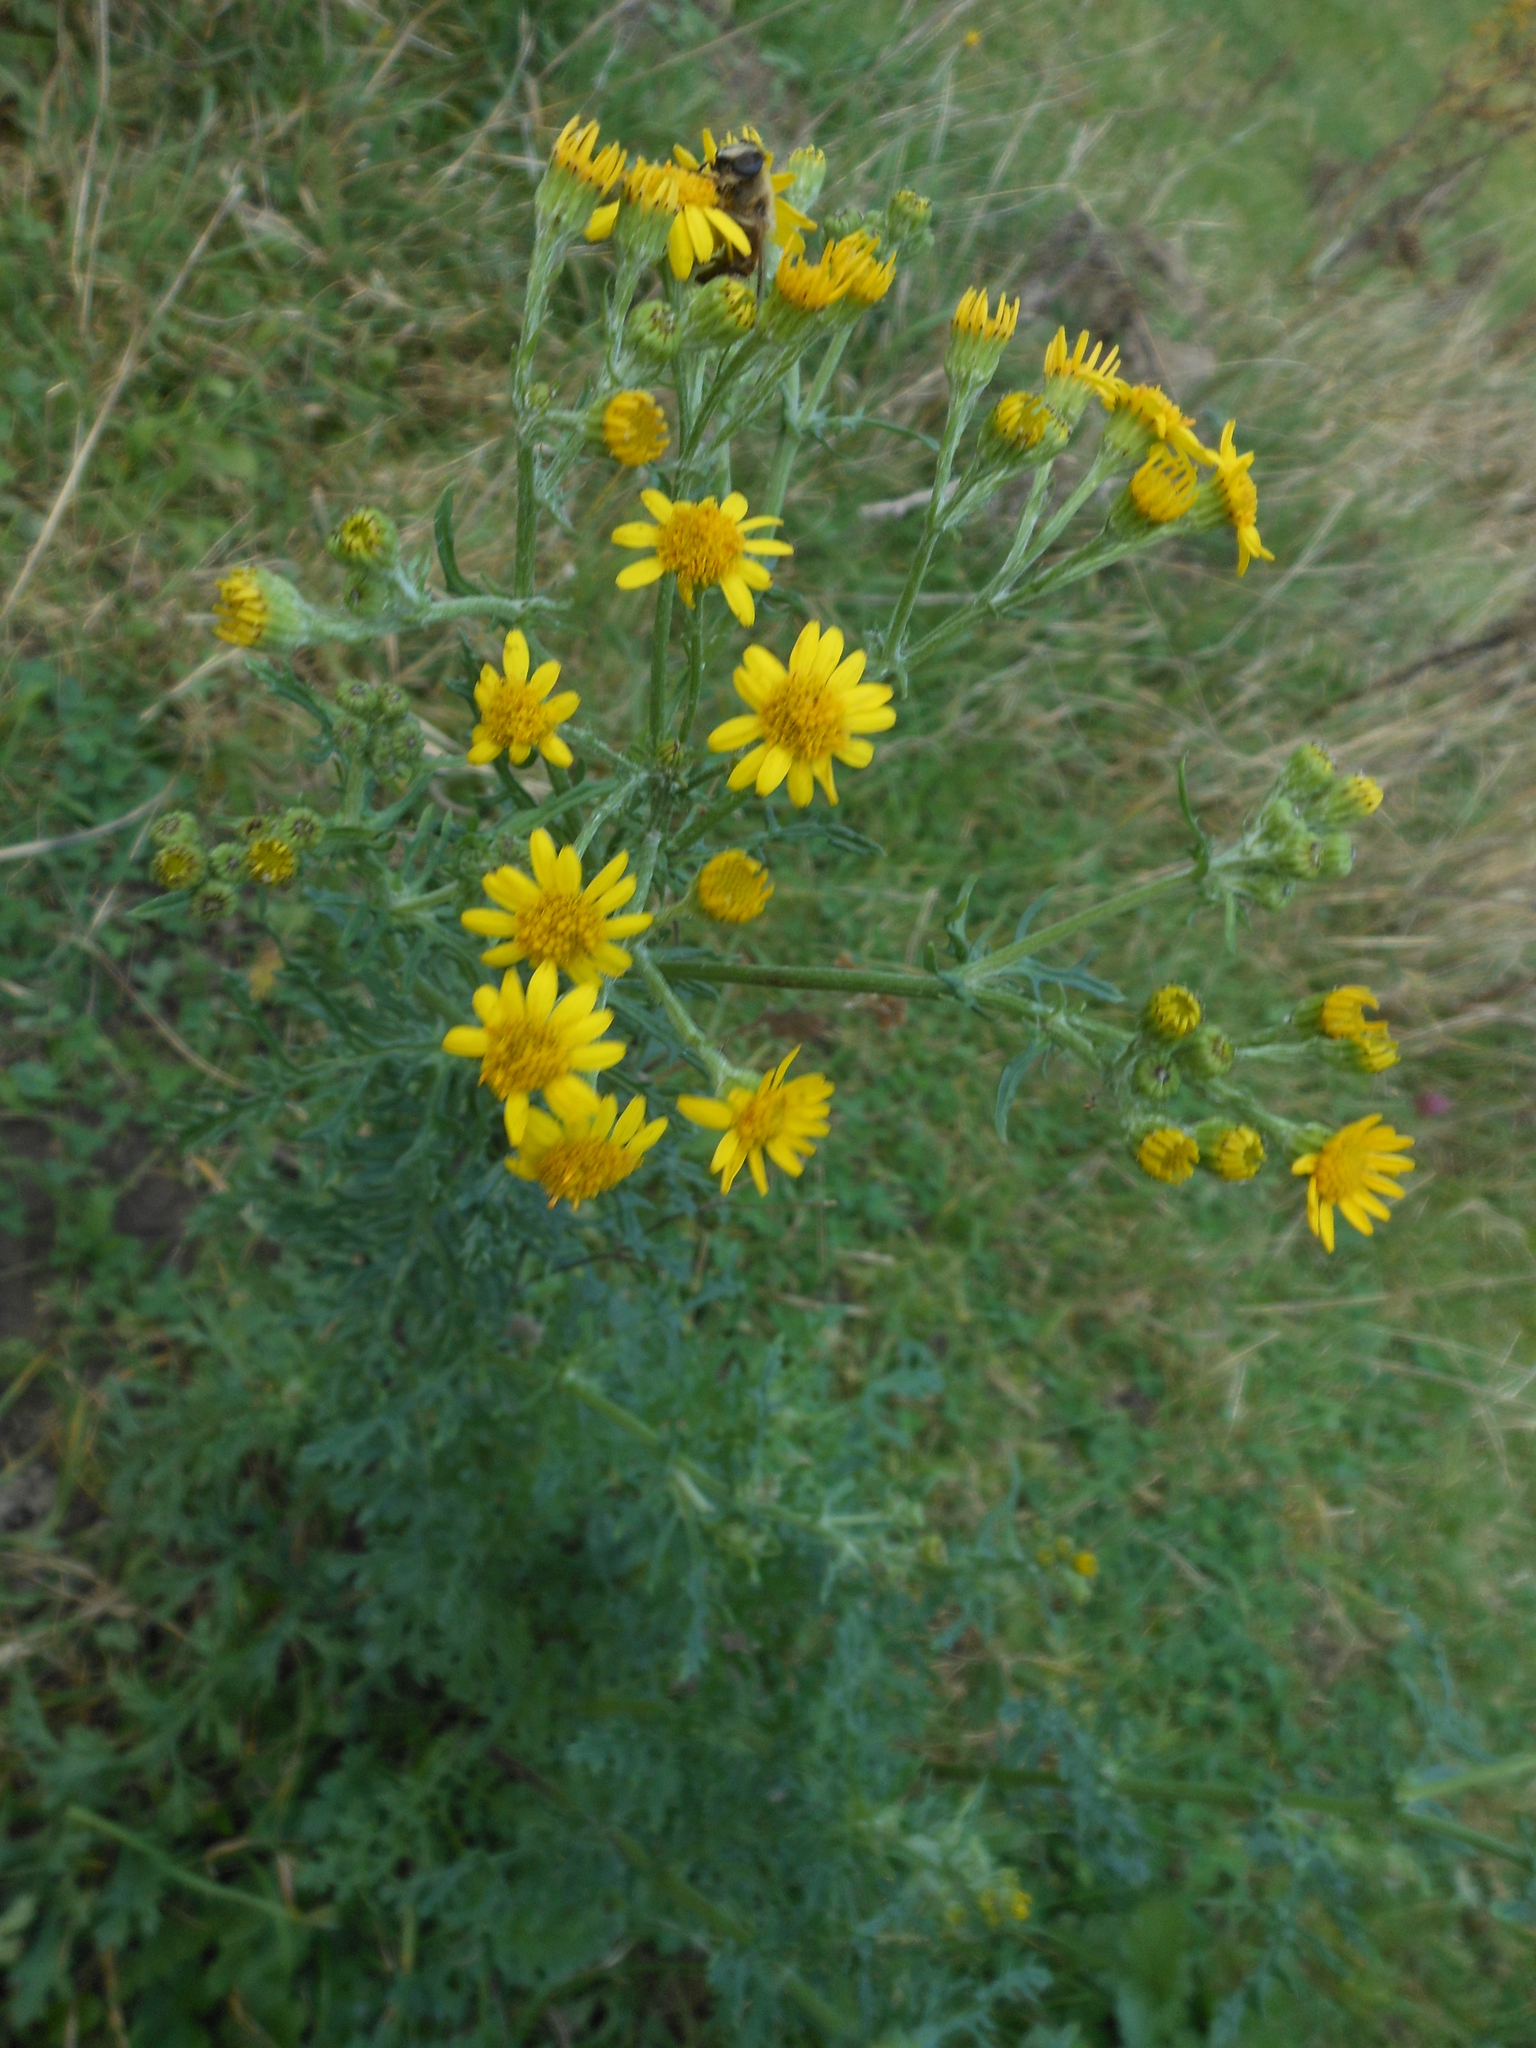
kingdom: Plantae
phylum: Tracheophyta
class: Magnoliopsida
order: Asterales
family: Asteraceae
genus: Jacobaea
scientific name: Jacobaea vulgaris
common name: Stinking willie
